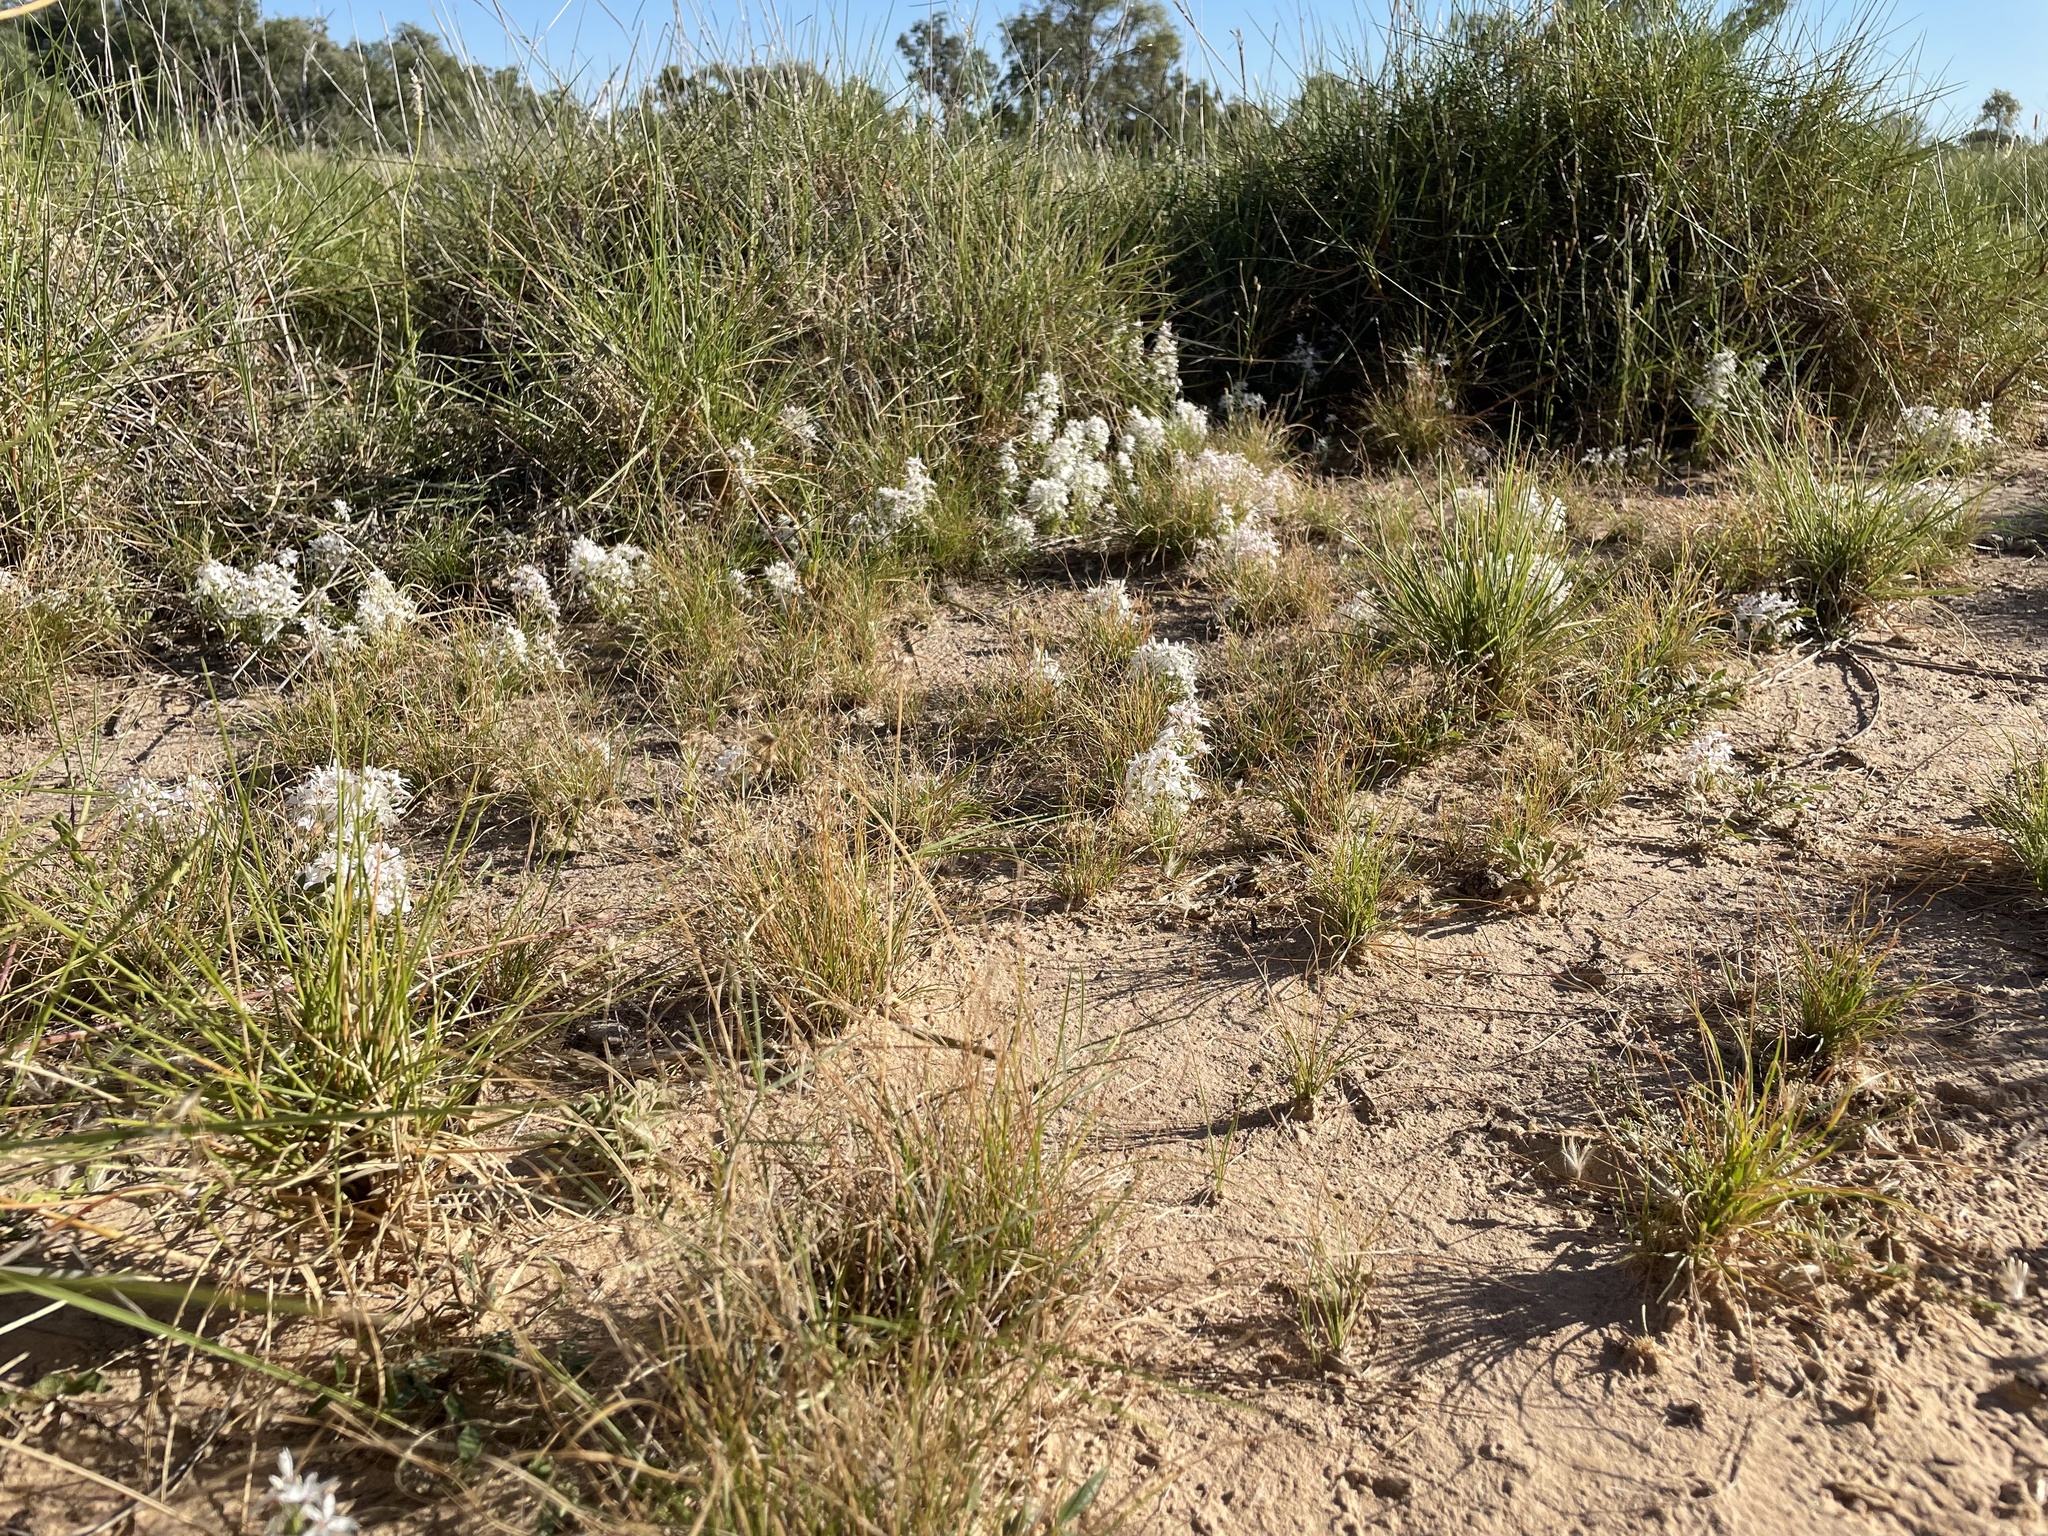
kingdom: Plantae
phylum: Tracheophyta
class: Magnoliopsida
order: Celastrales
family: Celastraceae
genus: Macgregoria
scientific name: Macgregoria racemigera
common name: Carpet-of-snow
